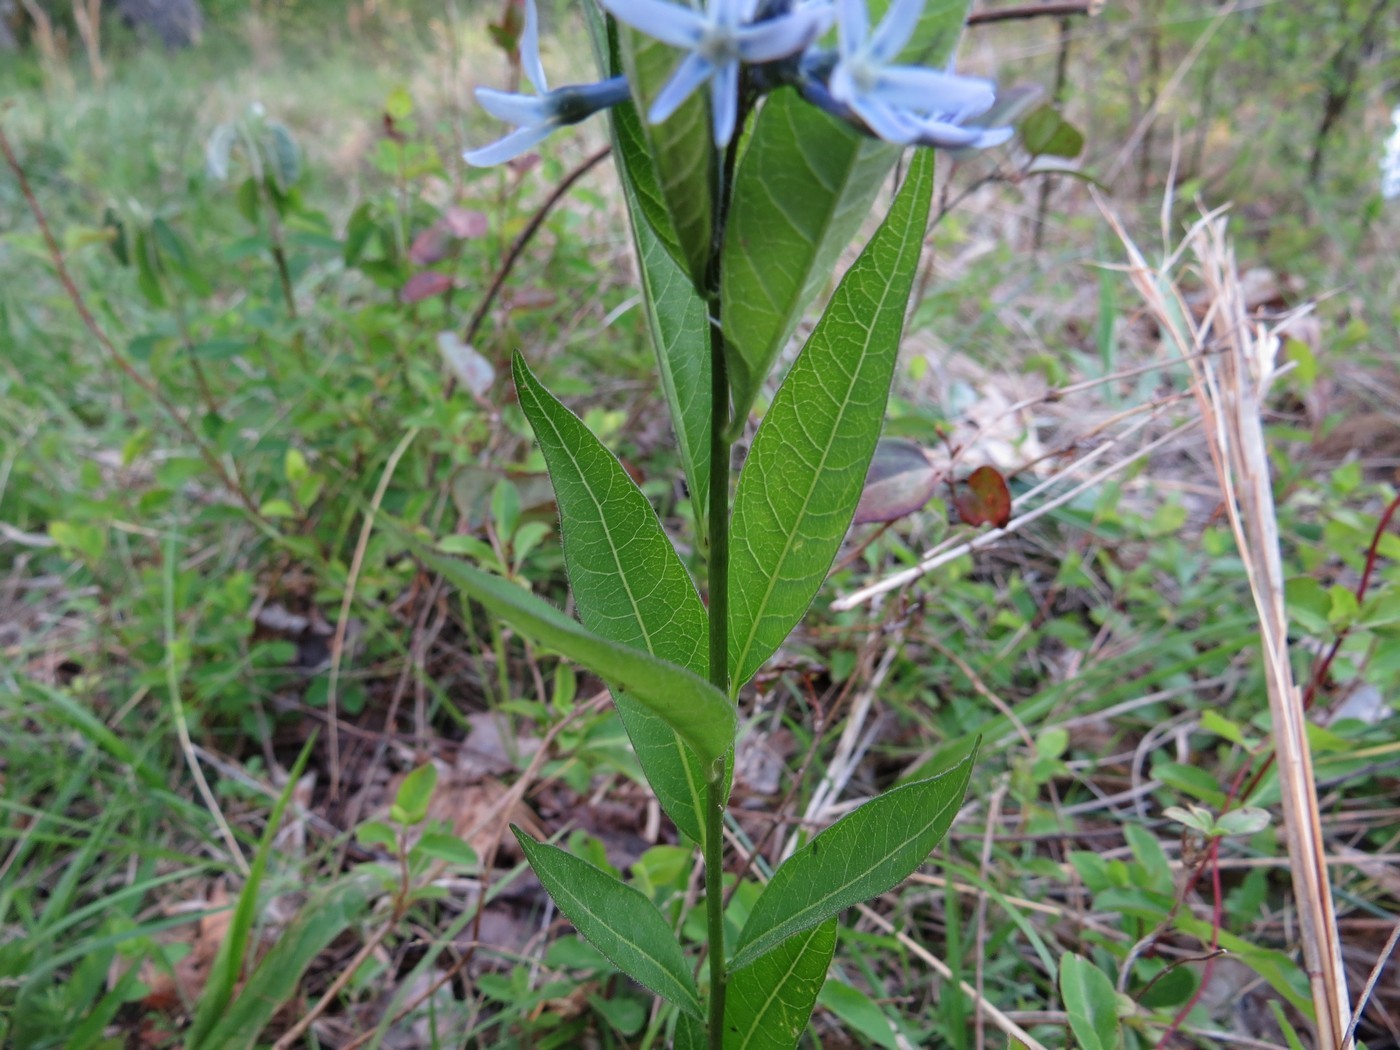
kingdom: Plantae
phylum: Tracheophyta
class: Magnoliopsida
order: Gentianales
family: Apocynaceae
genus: Amsonia
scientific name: Amsonia tabernaemontana
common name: Texas-star
